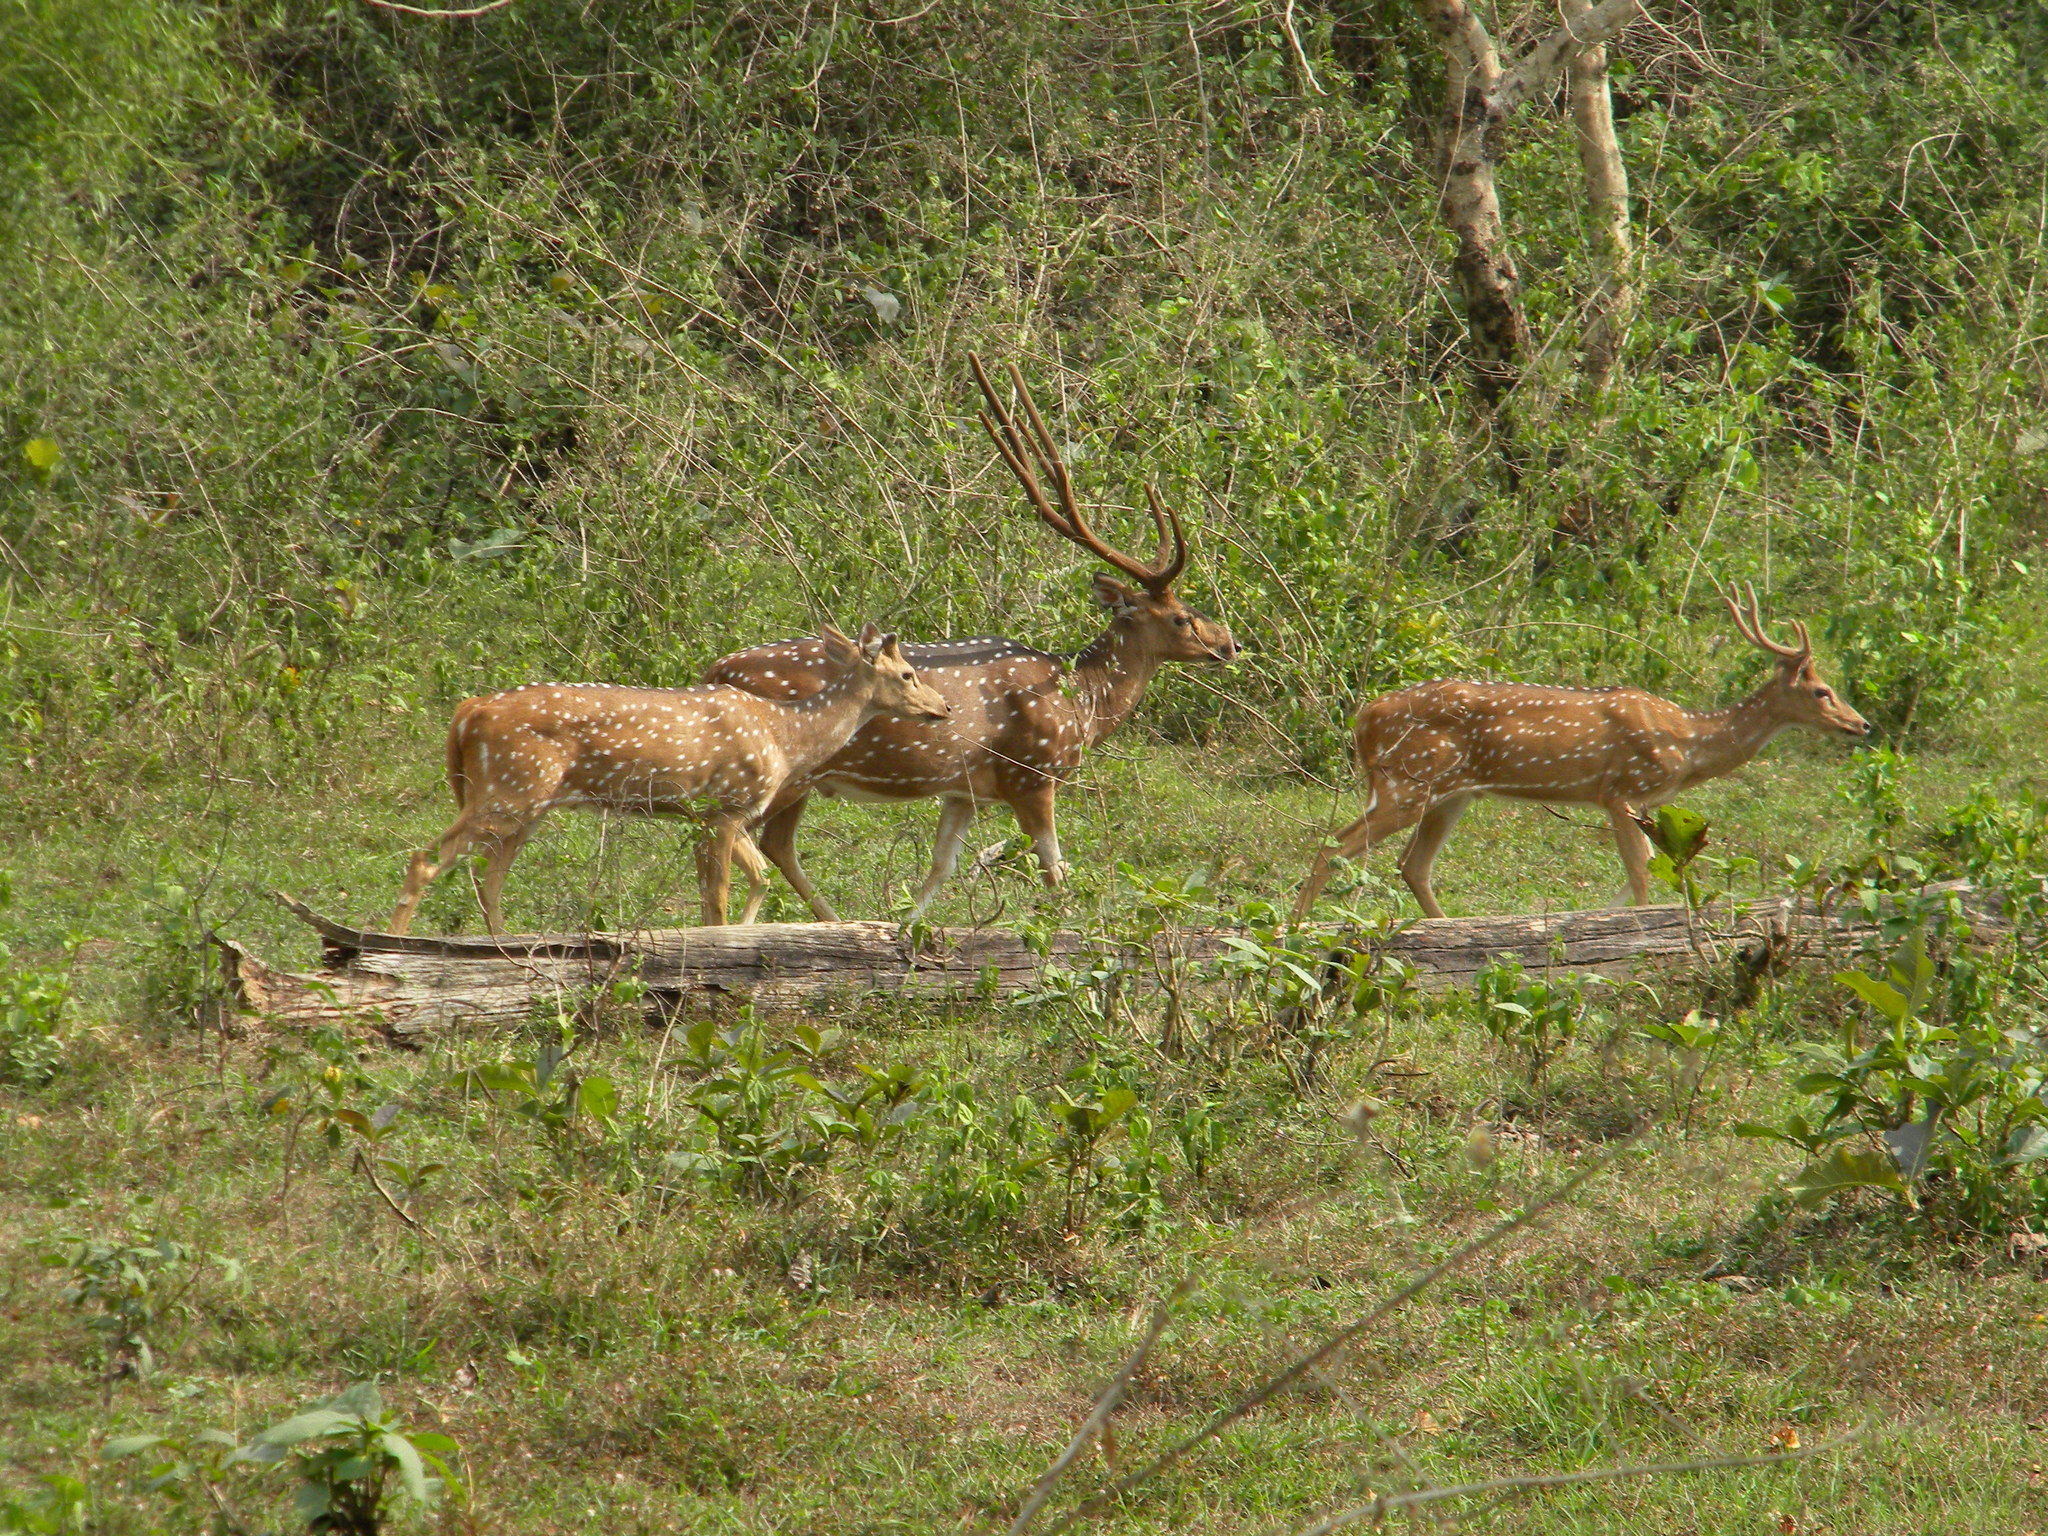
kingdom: Animalia
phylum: Chordata
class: Mammalia
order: Artiodactyla
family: Cervidae
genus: Axis
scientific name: Axis axis
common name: Chital
